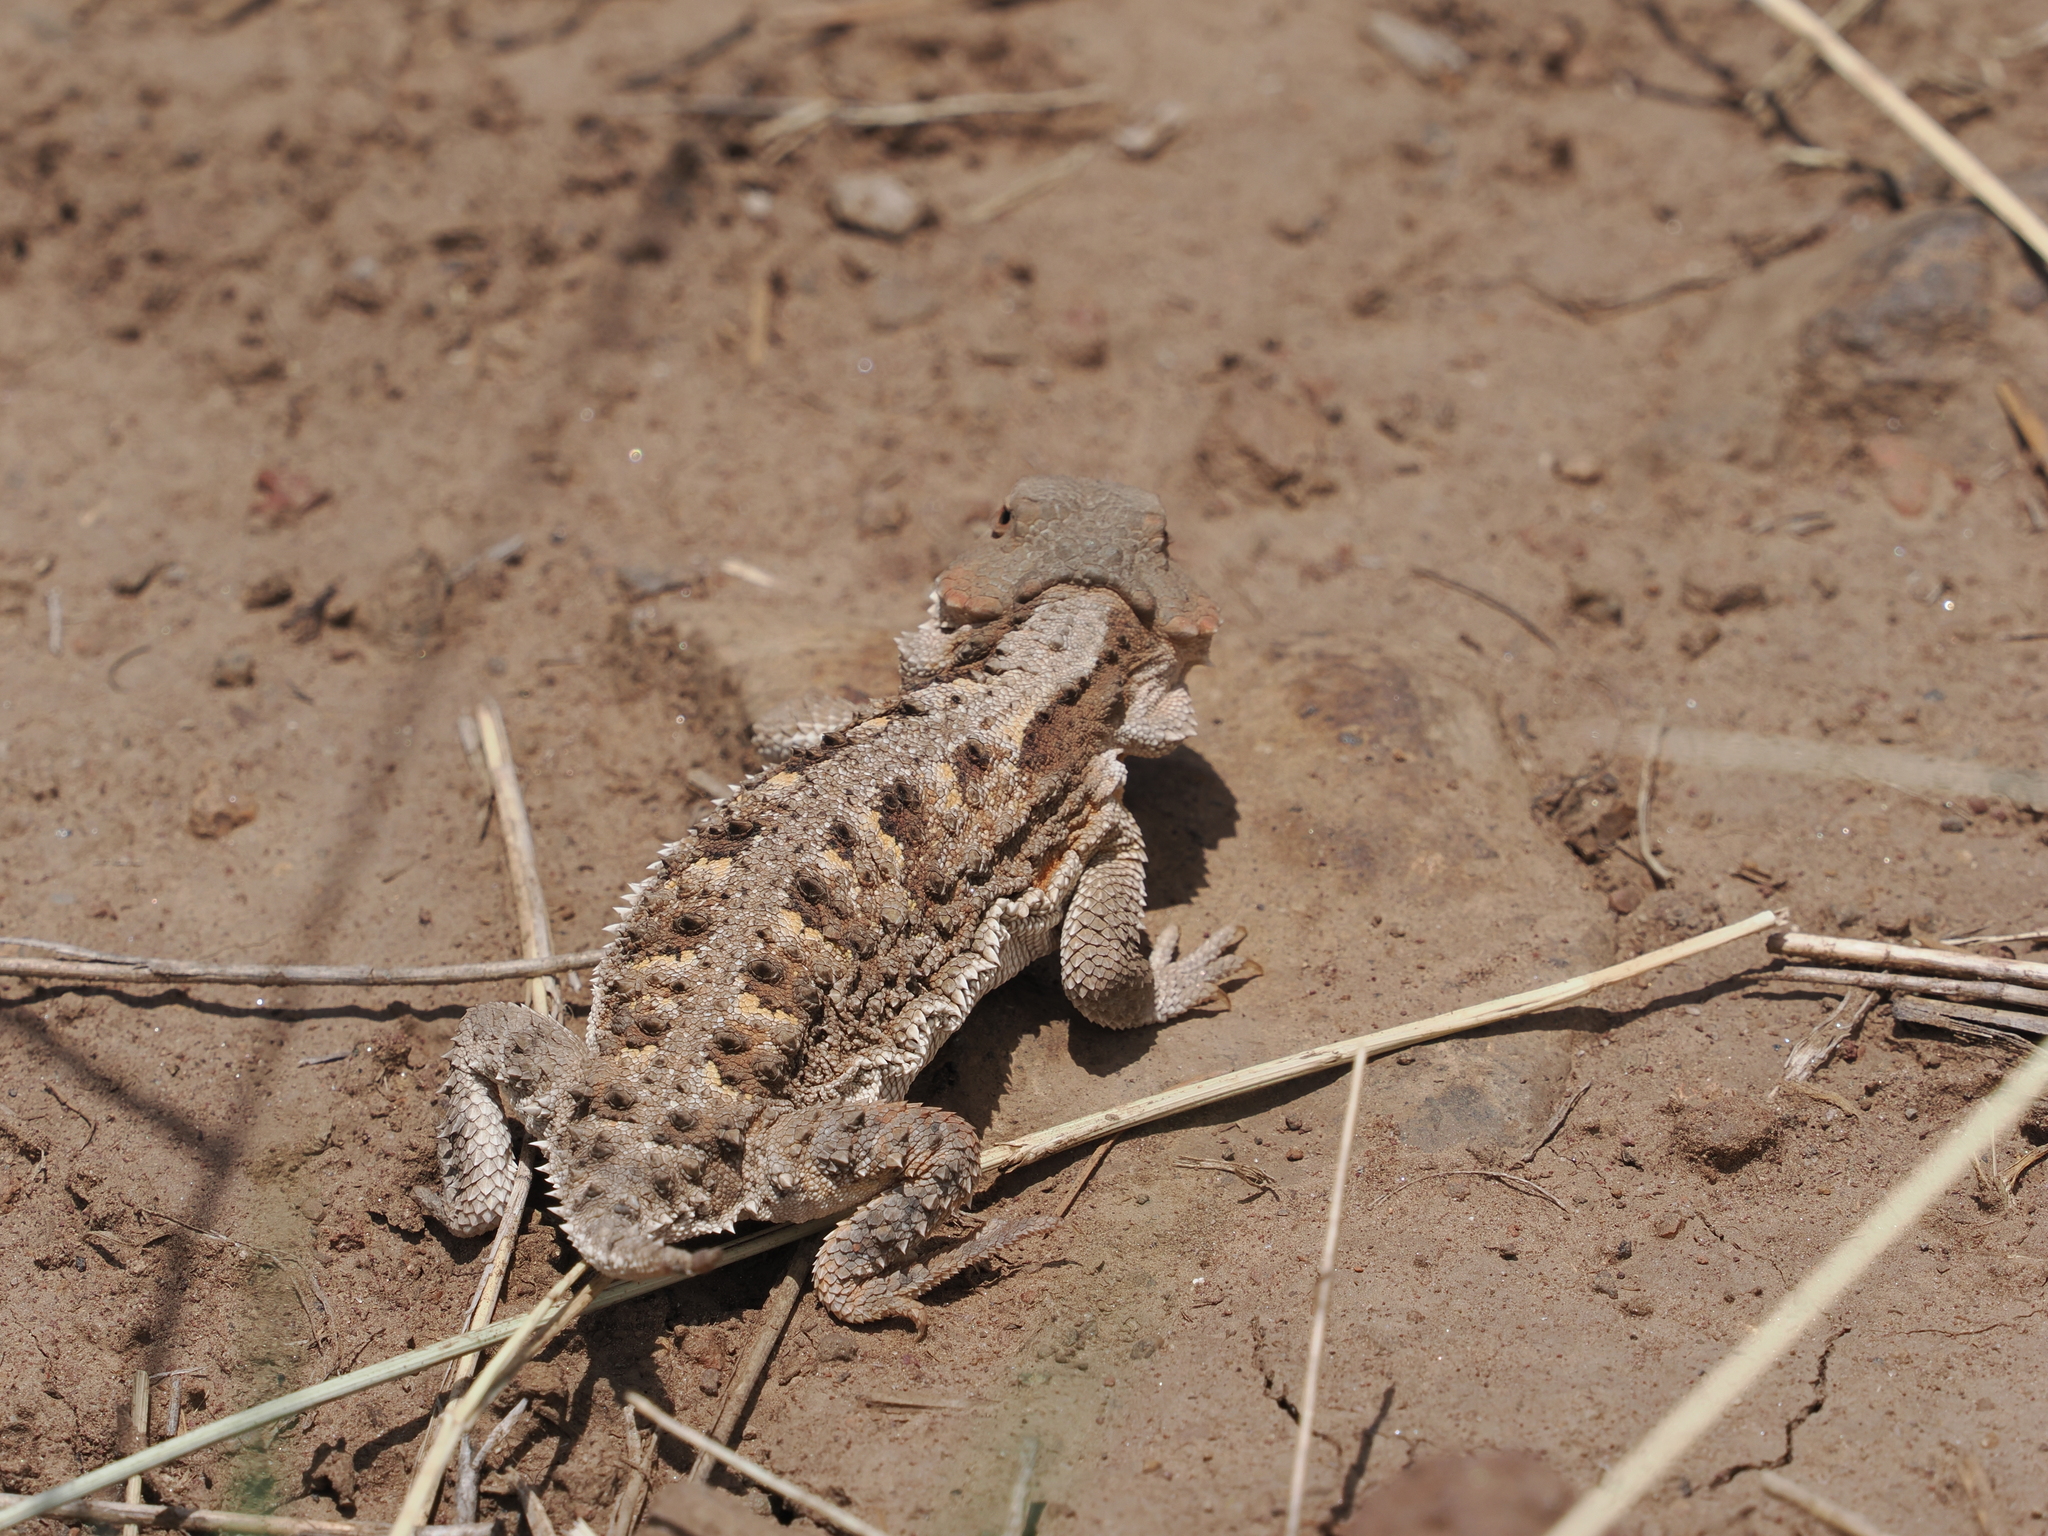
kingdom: Animalia
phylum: Chordata
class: Squamata
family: Phrynosomatidae
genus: Phrynosoma
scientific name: Phrynosoma hernandesi
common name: Greater short-horned lizard
